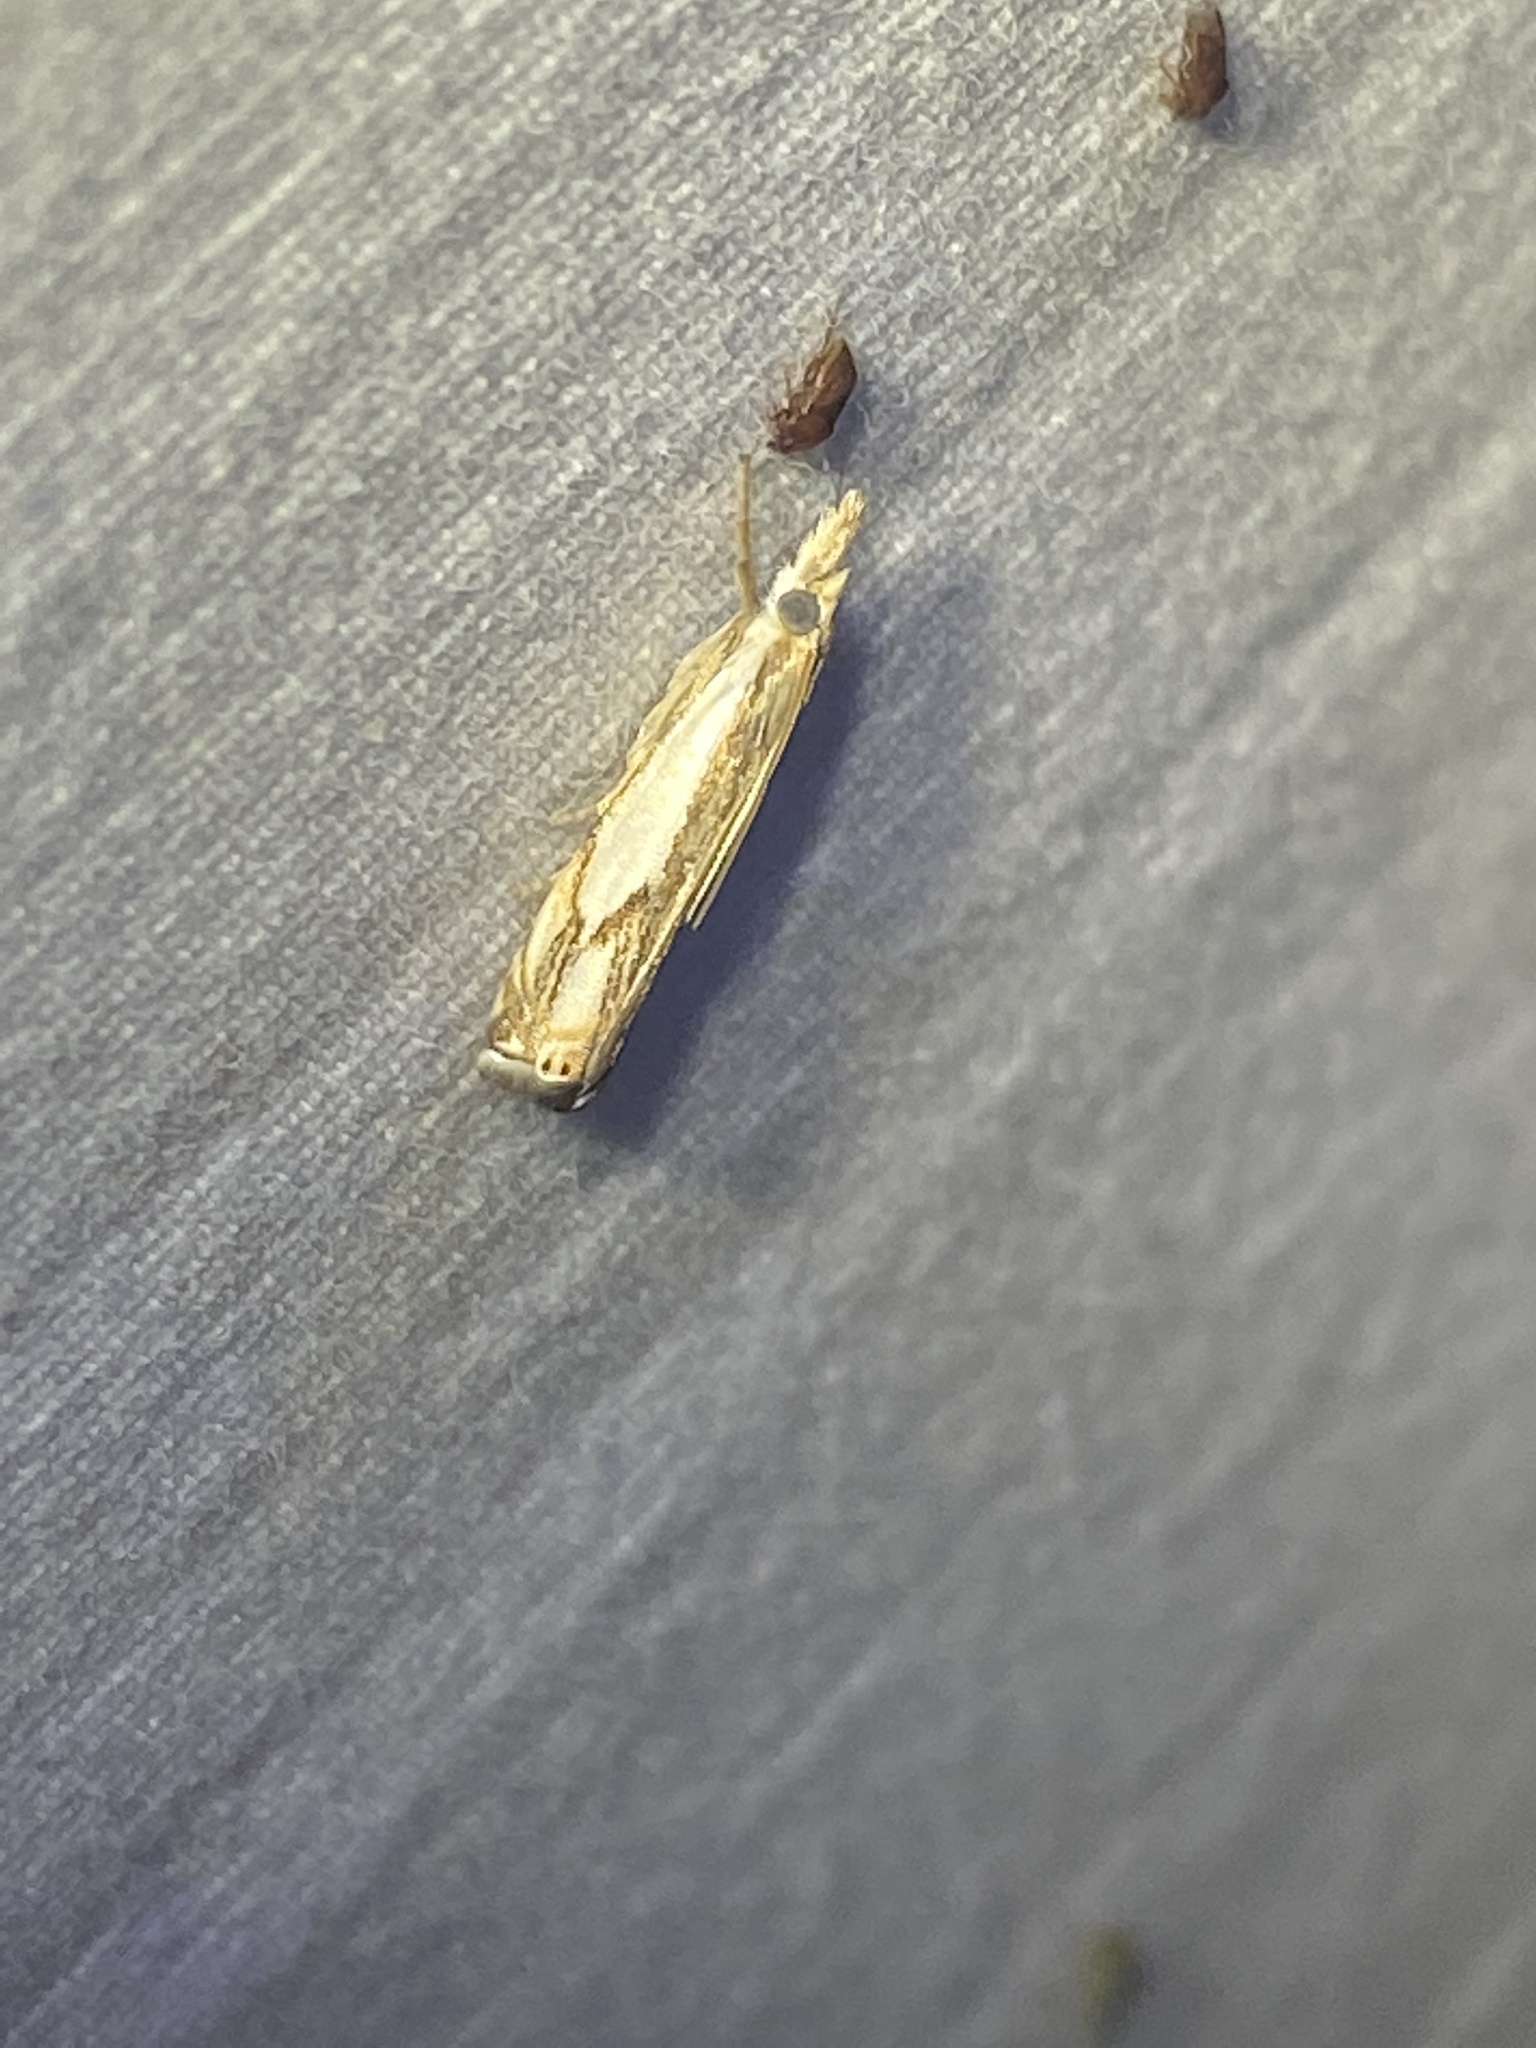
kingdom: Animalia
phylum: Arthropoda
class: Insecta
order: Lepidoptera
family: Crambidae
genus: Crambus
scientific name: Crambus agitatellus
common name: Double-banded grass-veneer
